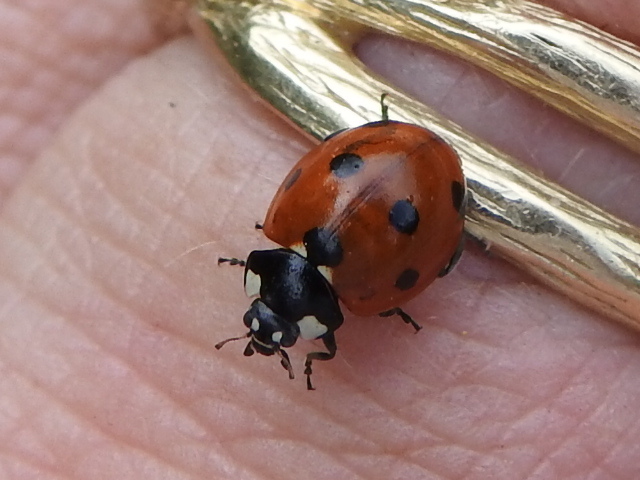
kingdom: Animalia
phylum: Arthropoda
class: Insecta
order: Coleoptera
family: Coccinellidae
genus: Coccinella
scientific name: Coccinella septempunctata
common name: Sevenspotted lady beetle
